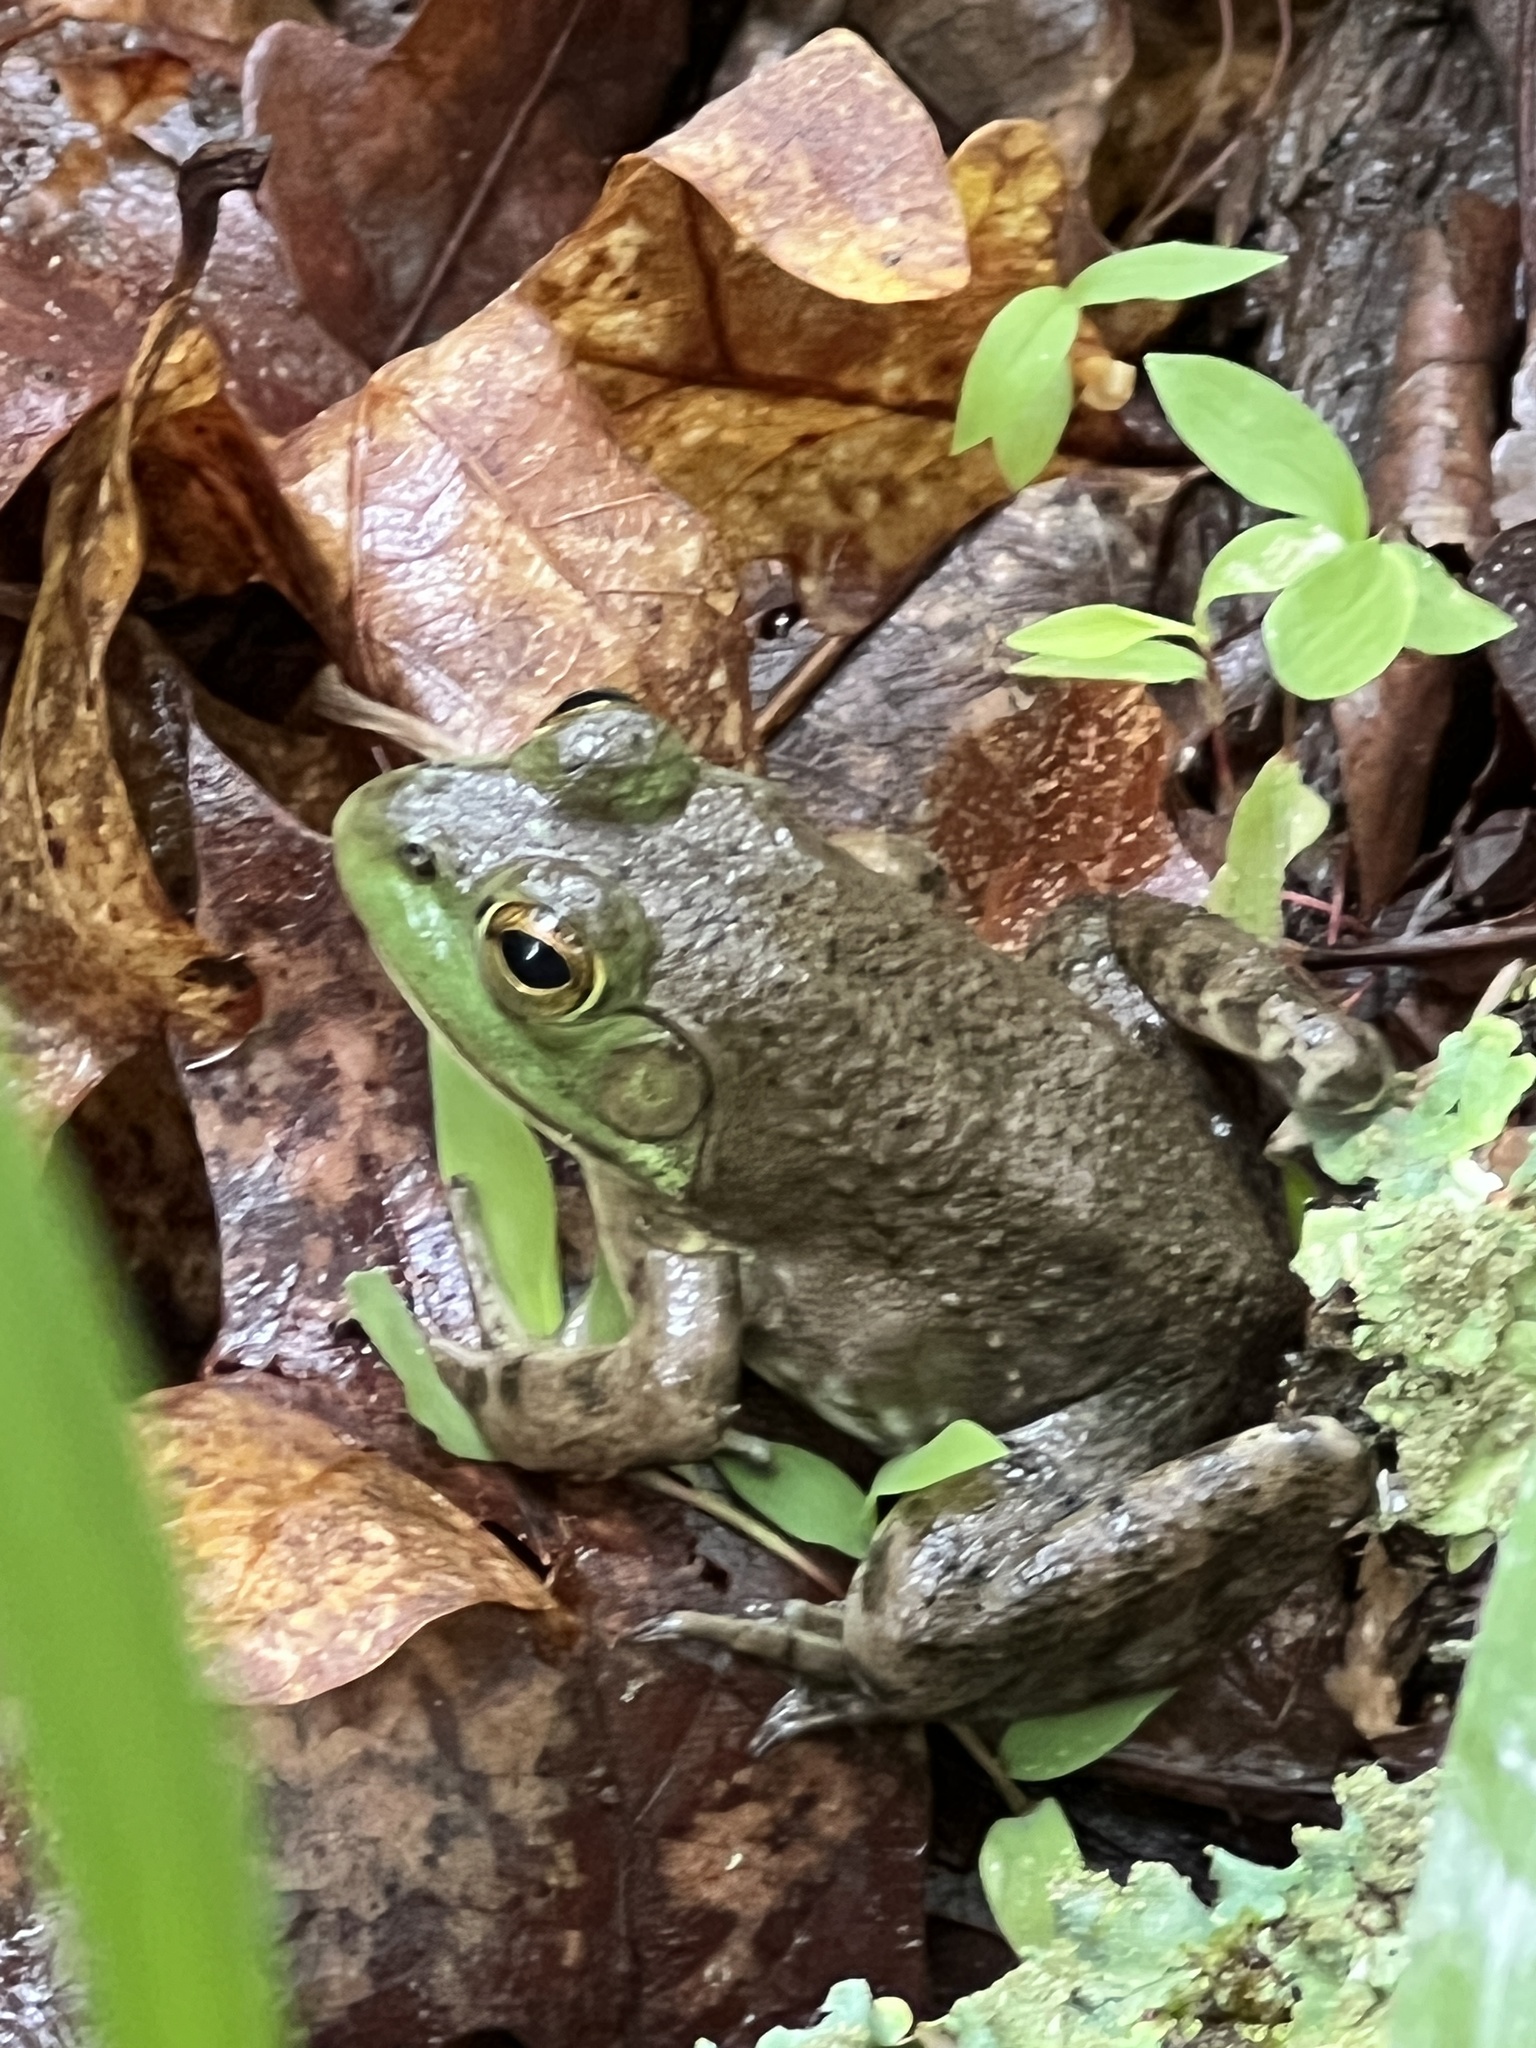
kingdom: Animalia
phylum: Chordata
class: Amphibia
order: Anura
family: Ranidae
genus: Lithobates
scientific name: Lithobates catesbeianus
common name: American bullfrog
